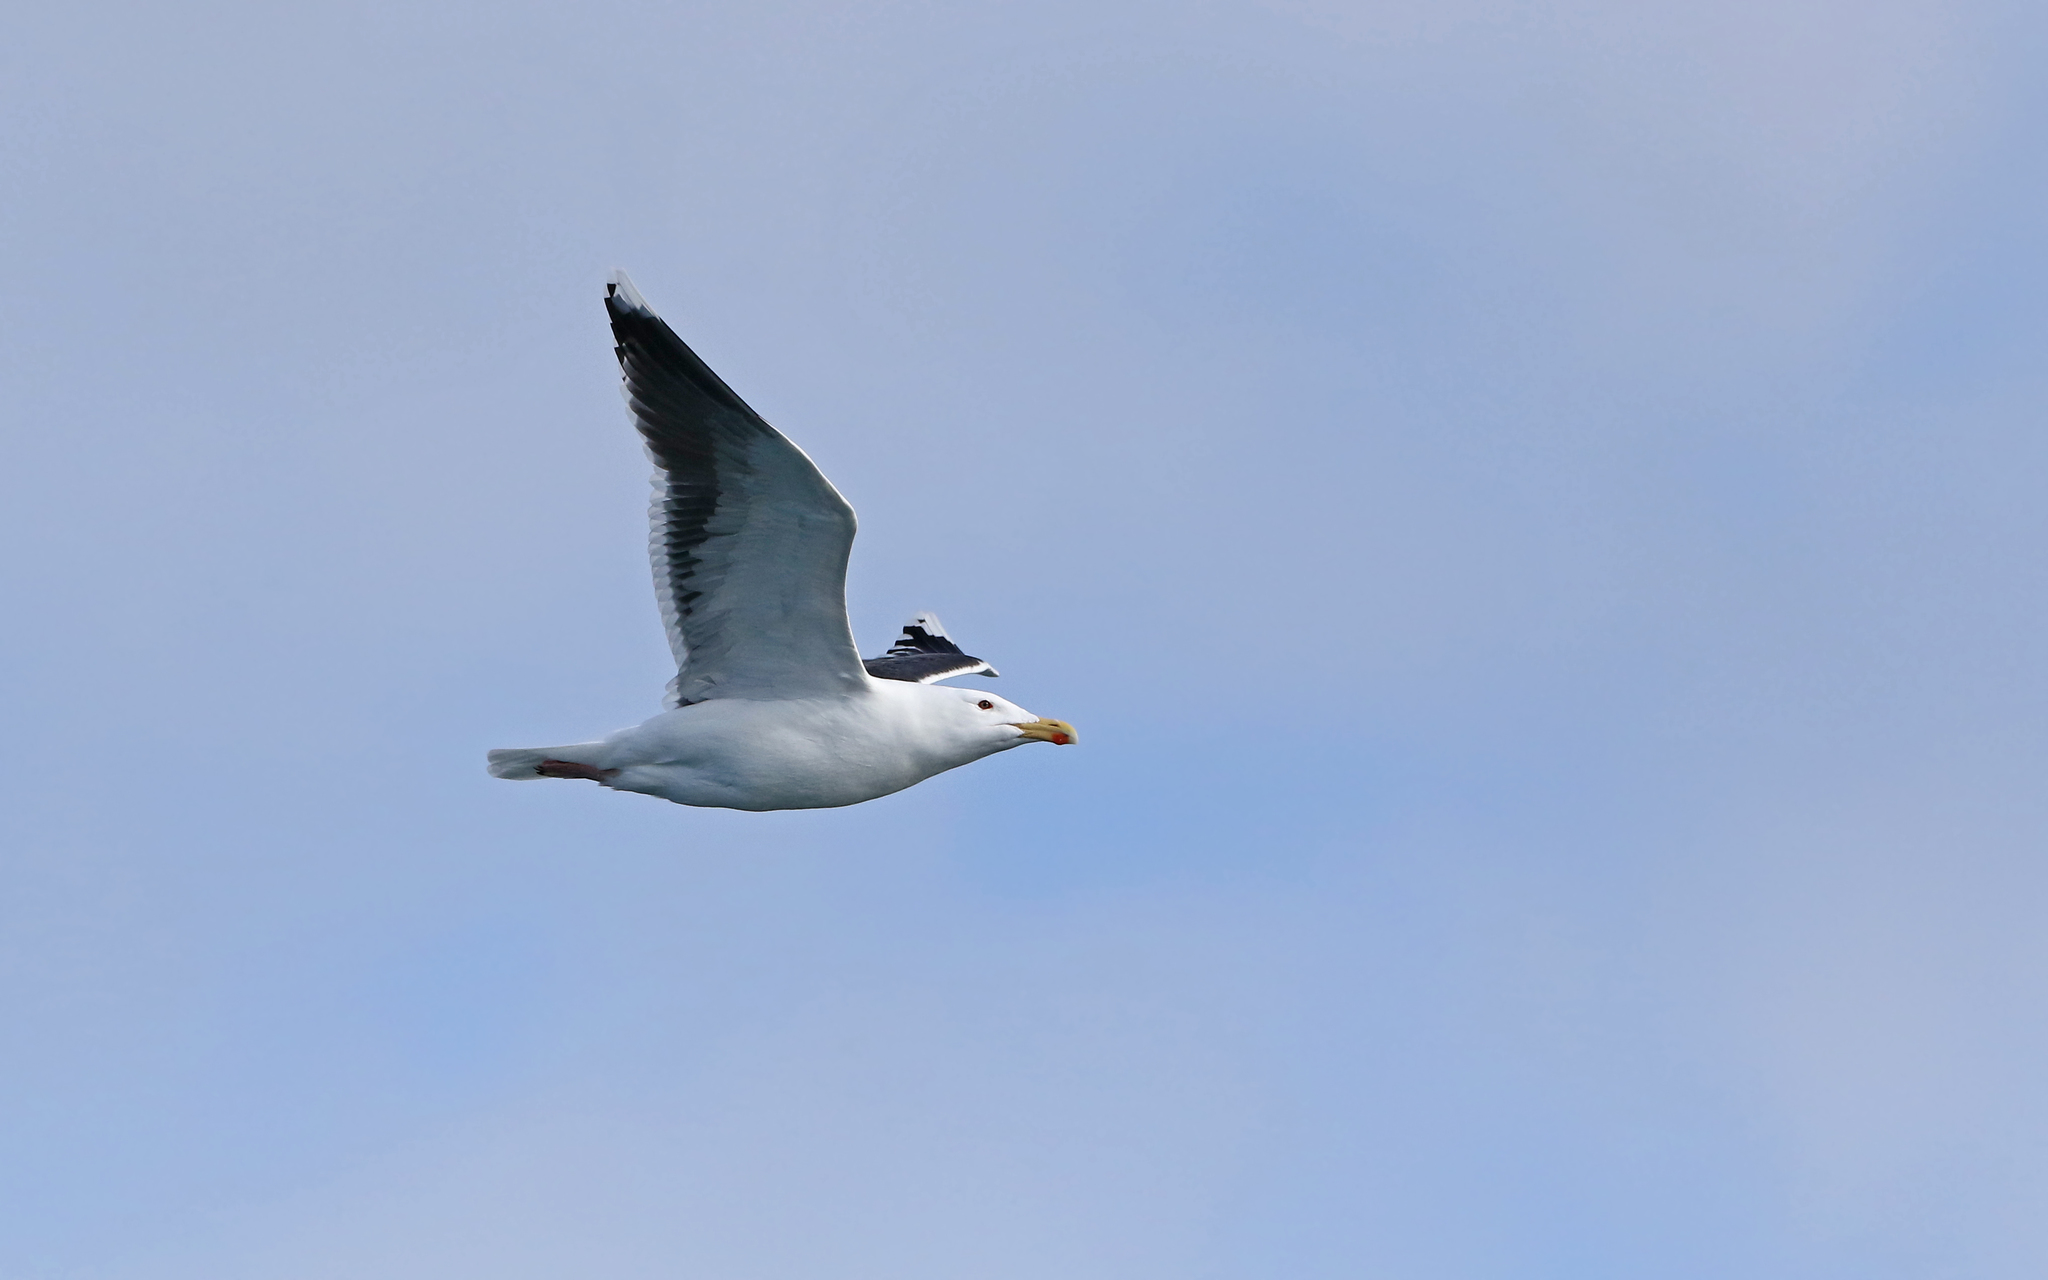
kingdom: Animalia
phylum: Chordata
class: Aves
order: Charadriiformes
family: Laridae
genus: Larus
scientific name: Larus marinus
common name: Great black-backed gull
